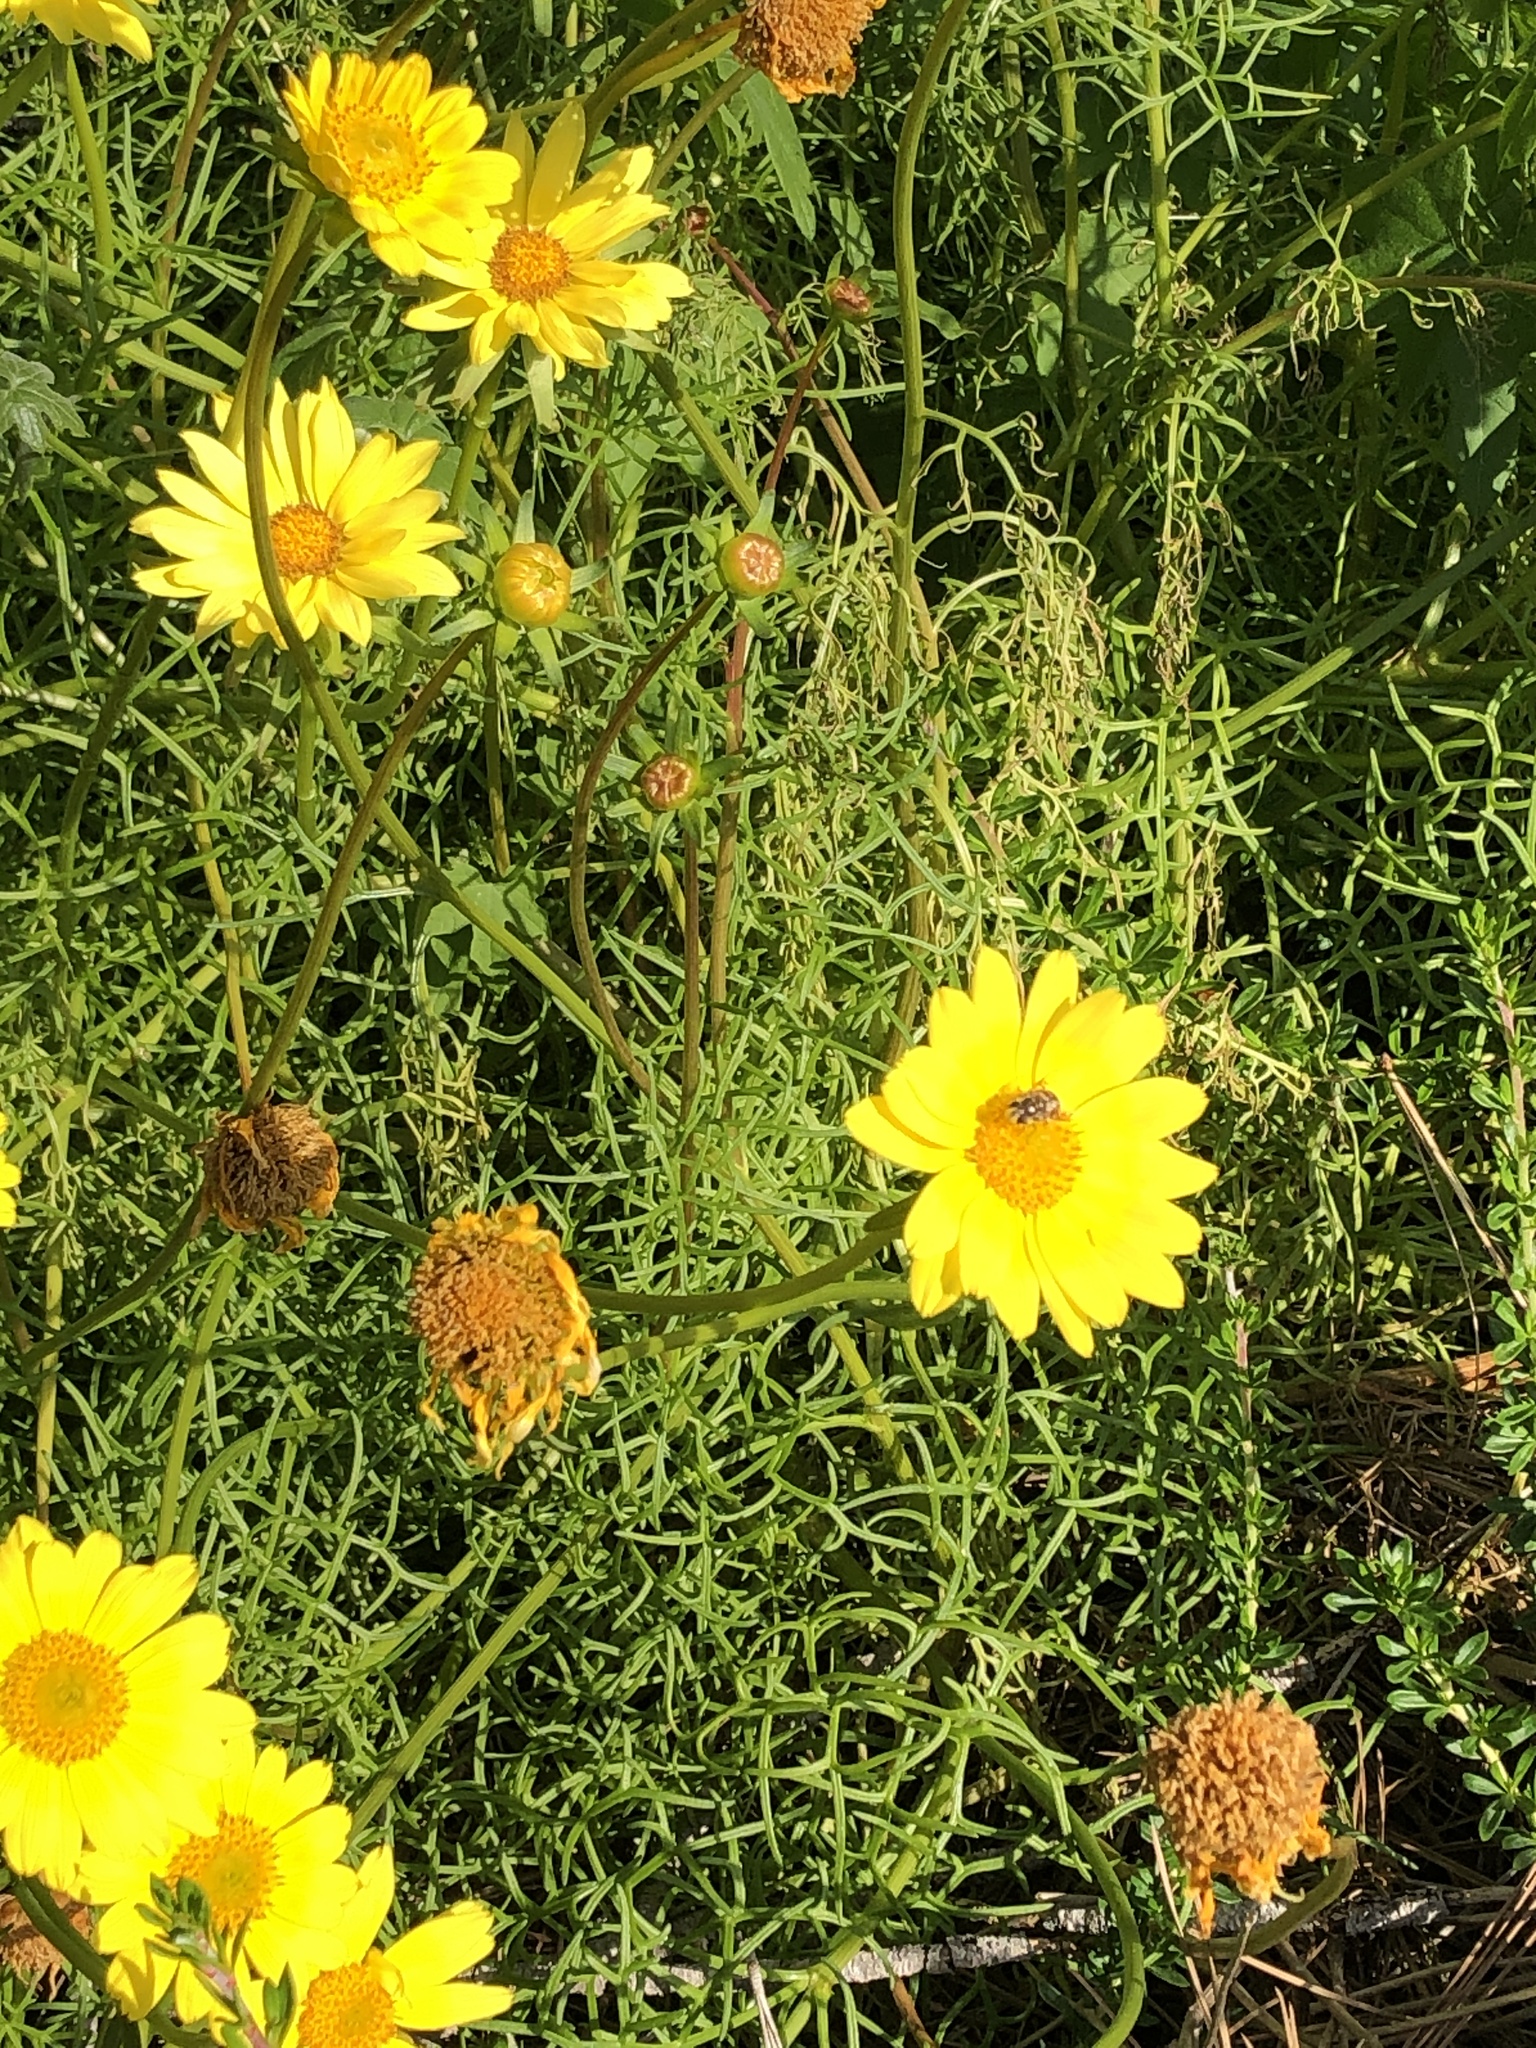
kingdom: Plantae
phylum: Tracheophyta
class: Magnoliopsida
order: Asterales
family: Asteraceae
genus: Glebionis
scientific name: Glebionis coronaria
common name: Crowndaisy
